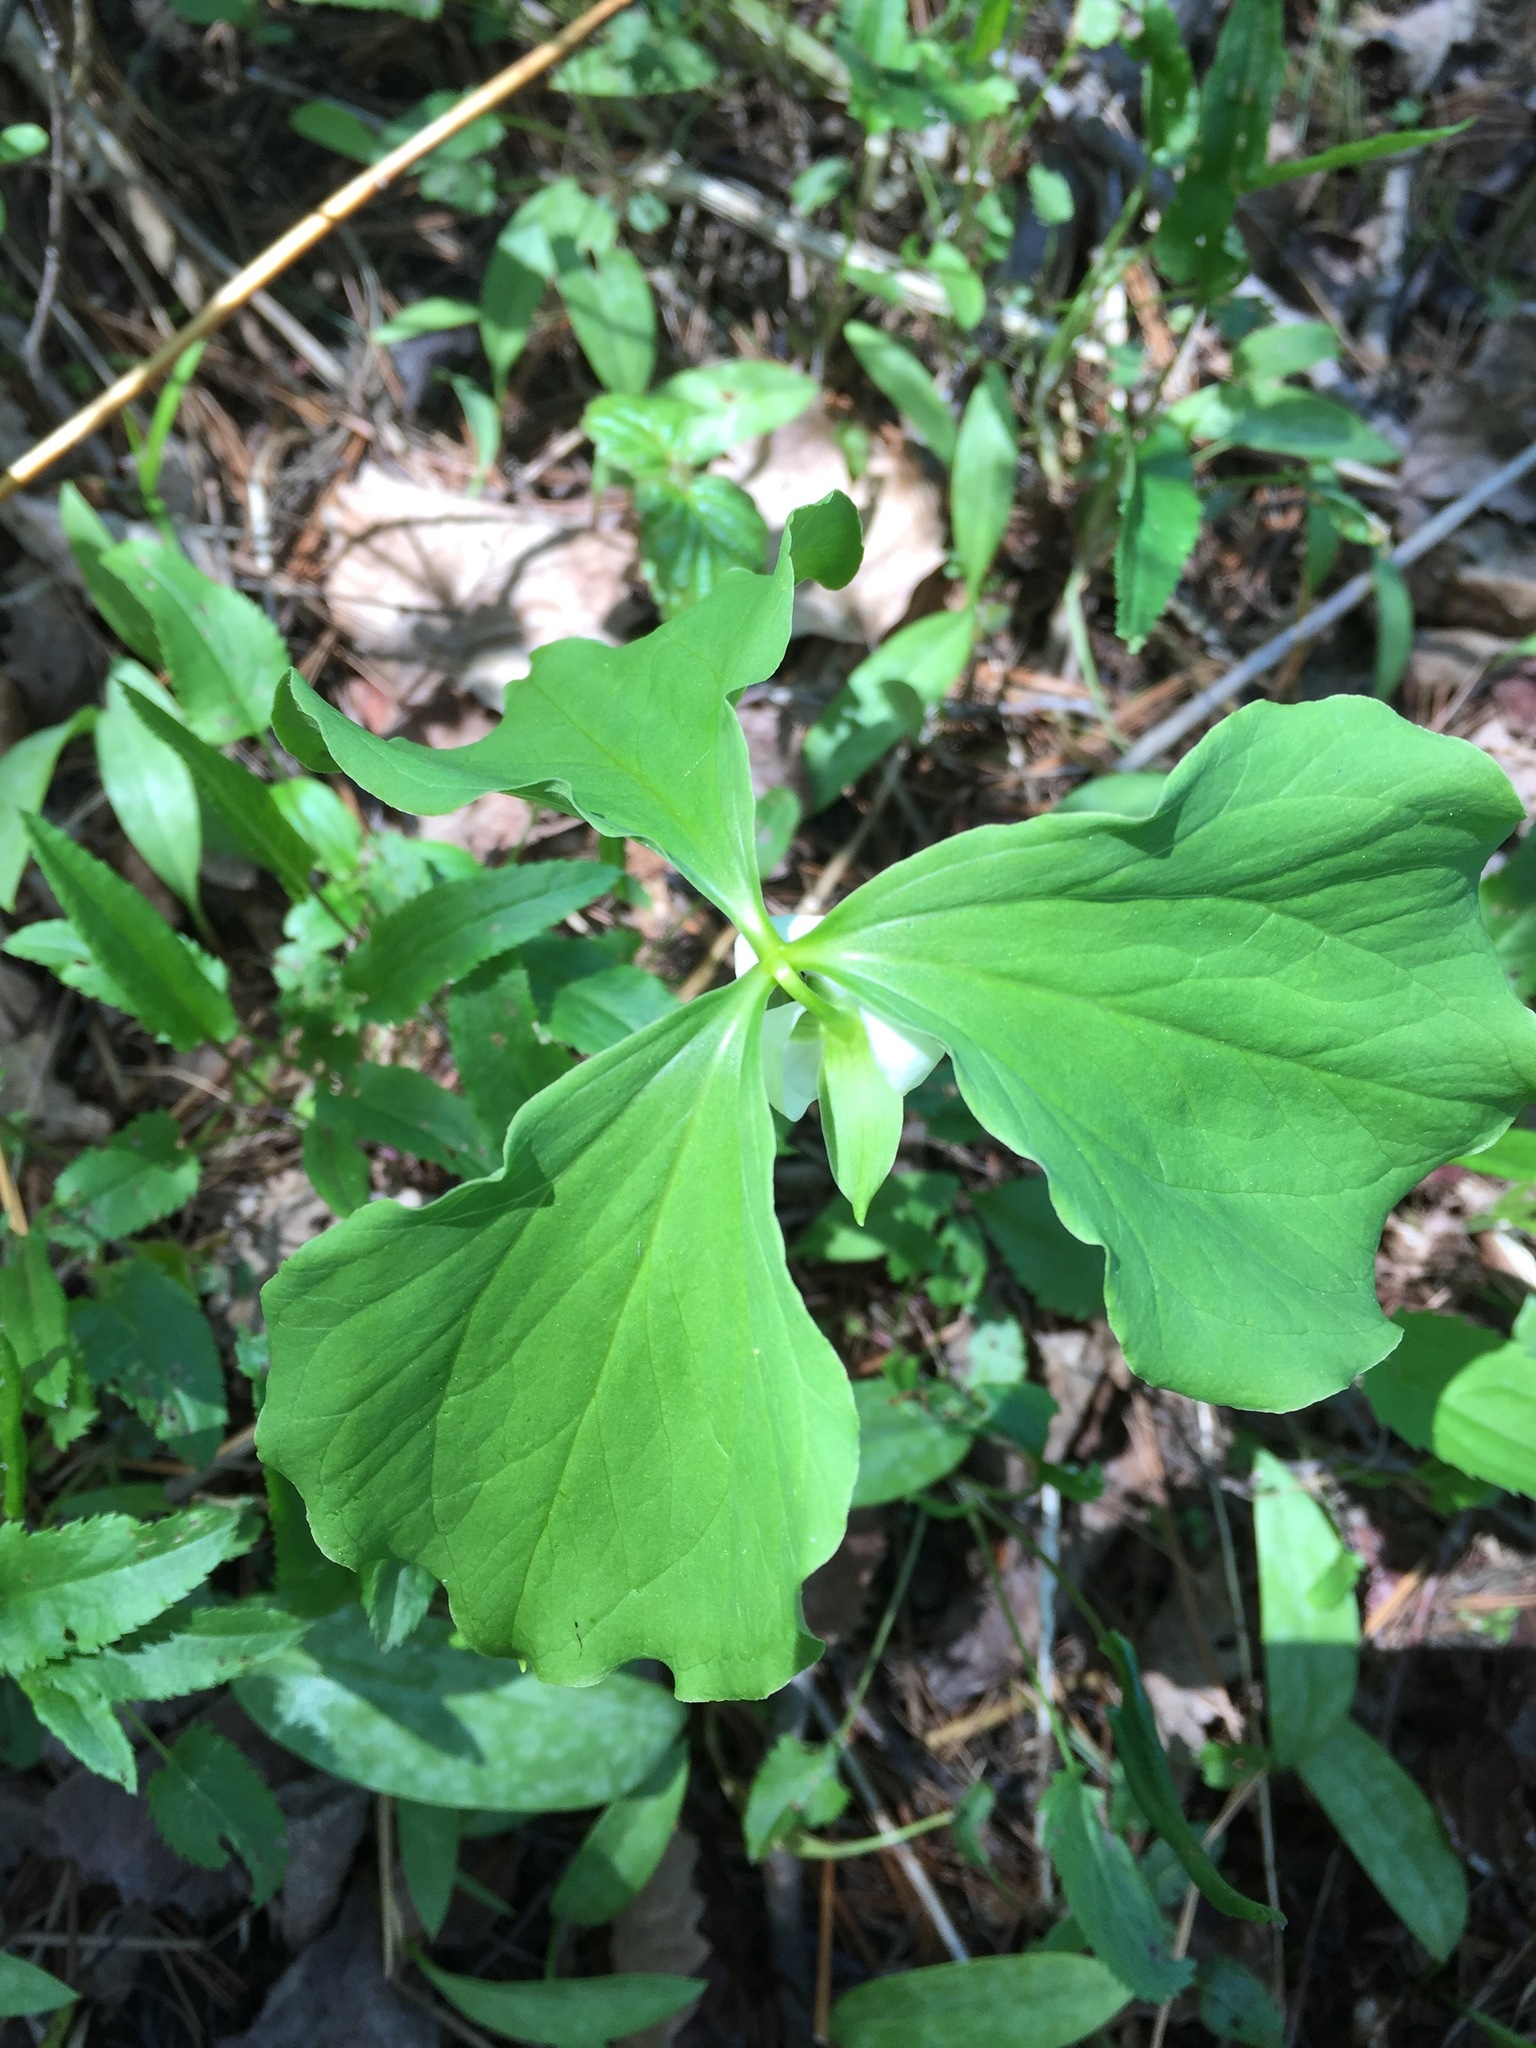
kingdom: Plantae
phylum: Tracheophyta
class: Liliopsida
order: Liliales
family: Melanthiaceae
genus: Trillium
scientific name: Trillium cernuum
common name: Nodding trillium
